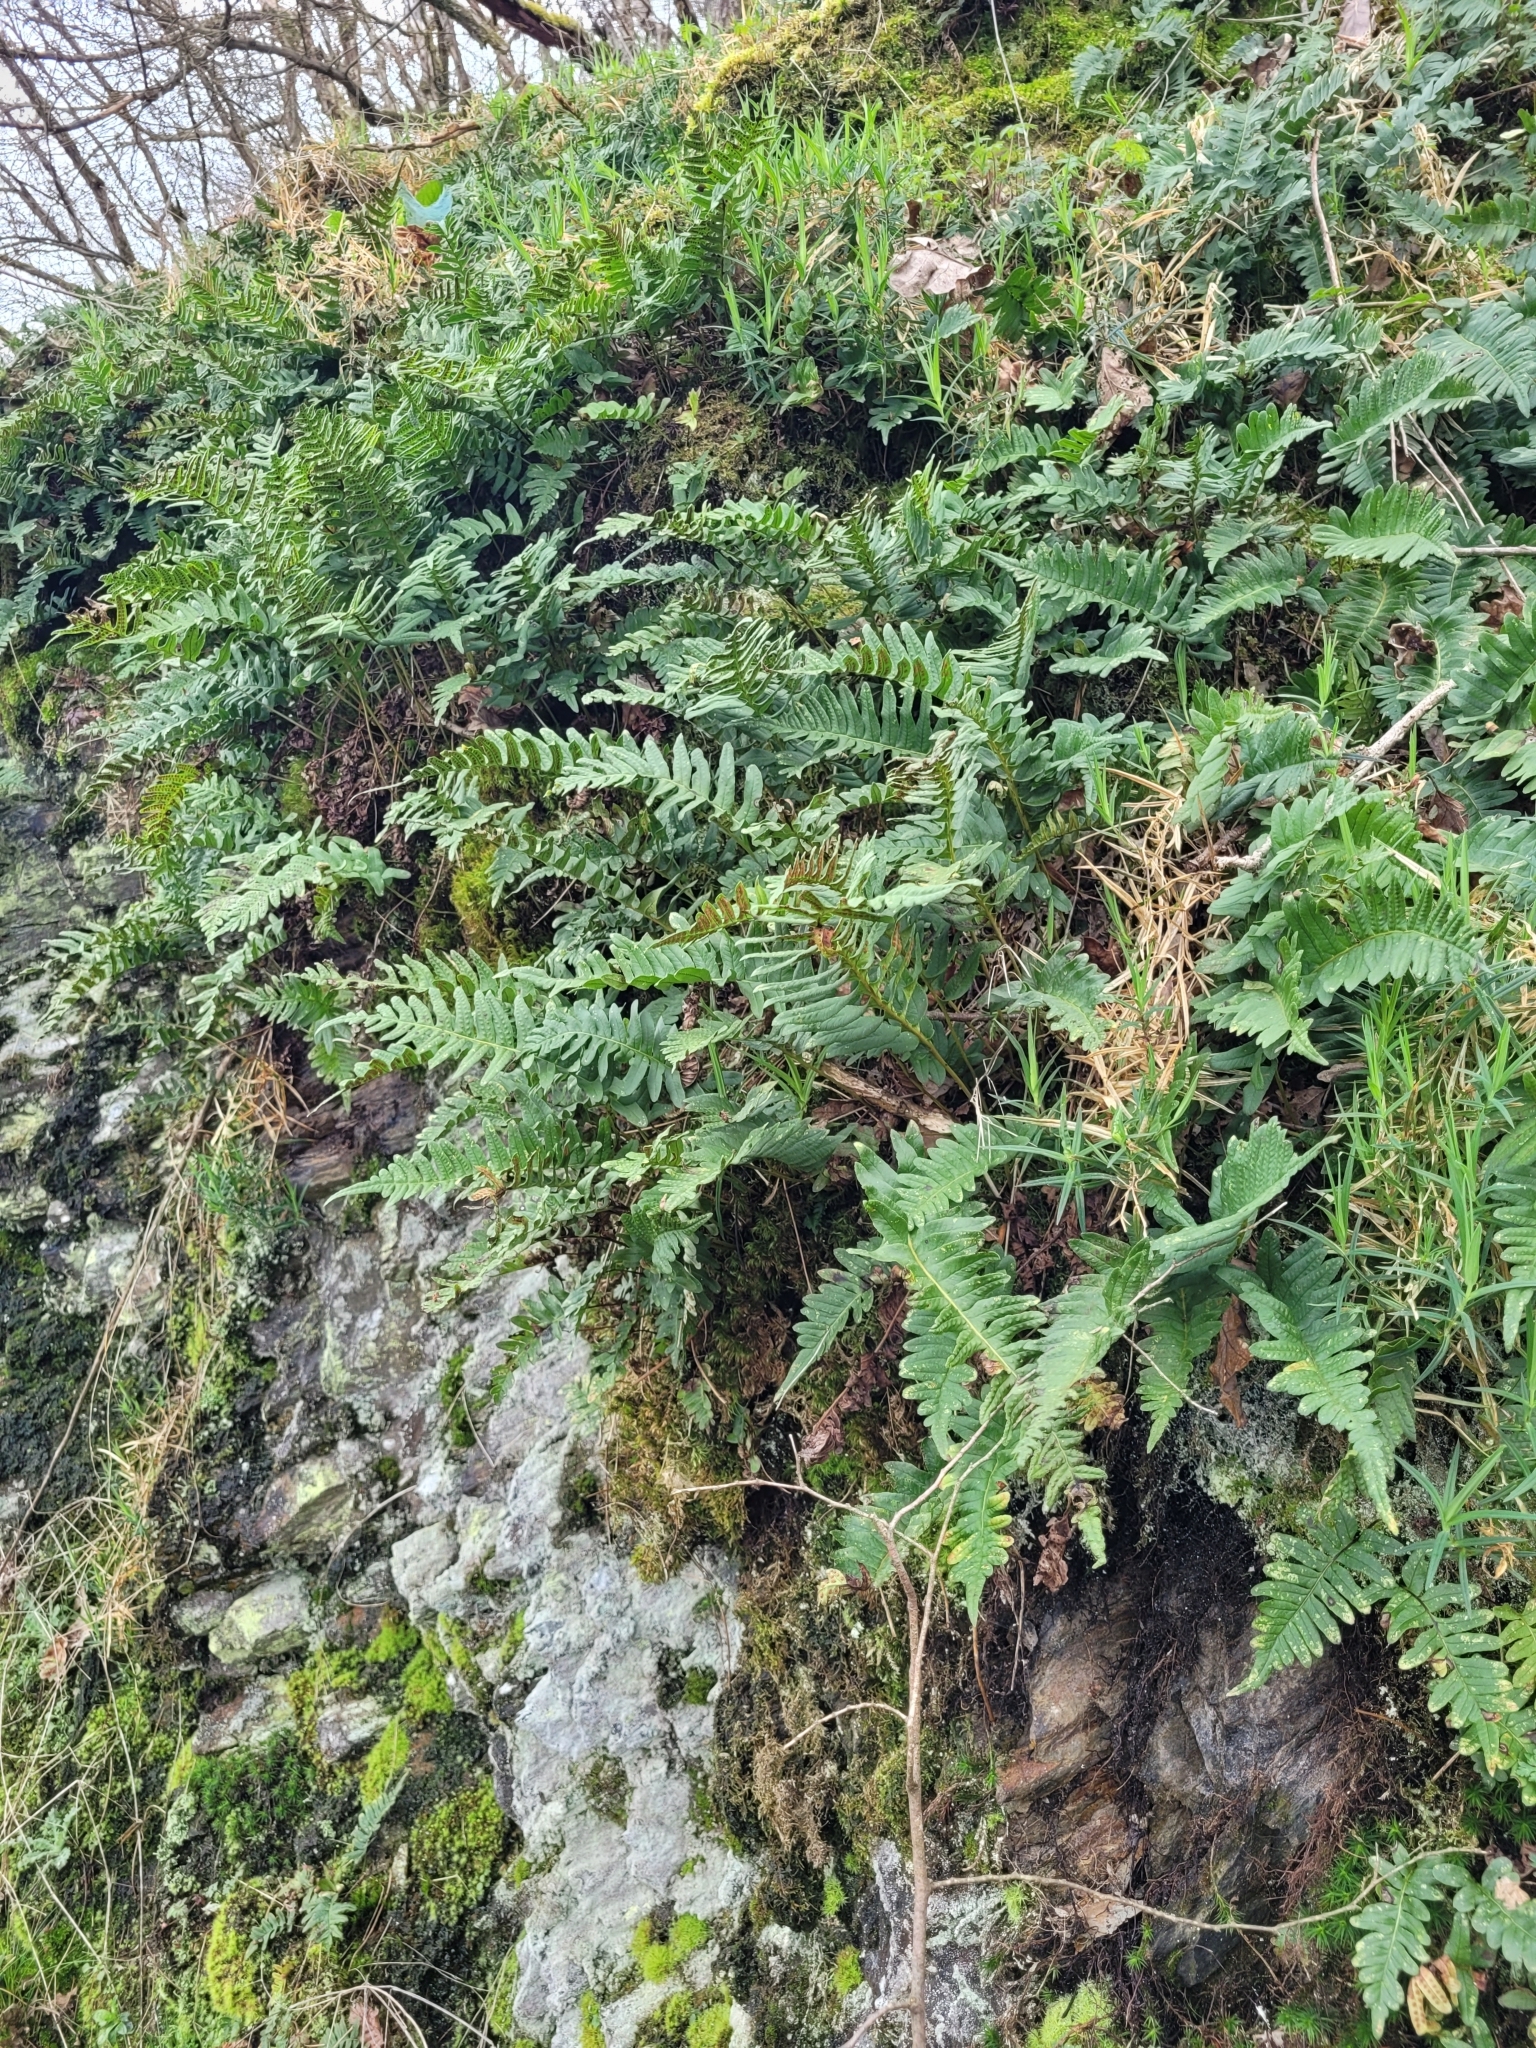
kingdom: Plantae
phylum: Tracheophyta
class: Polypodiopsida
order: Polypodiales
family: Polypodiaceae
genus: Polypodium
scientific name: Polypodium vulgare
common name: Common polypody
